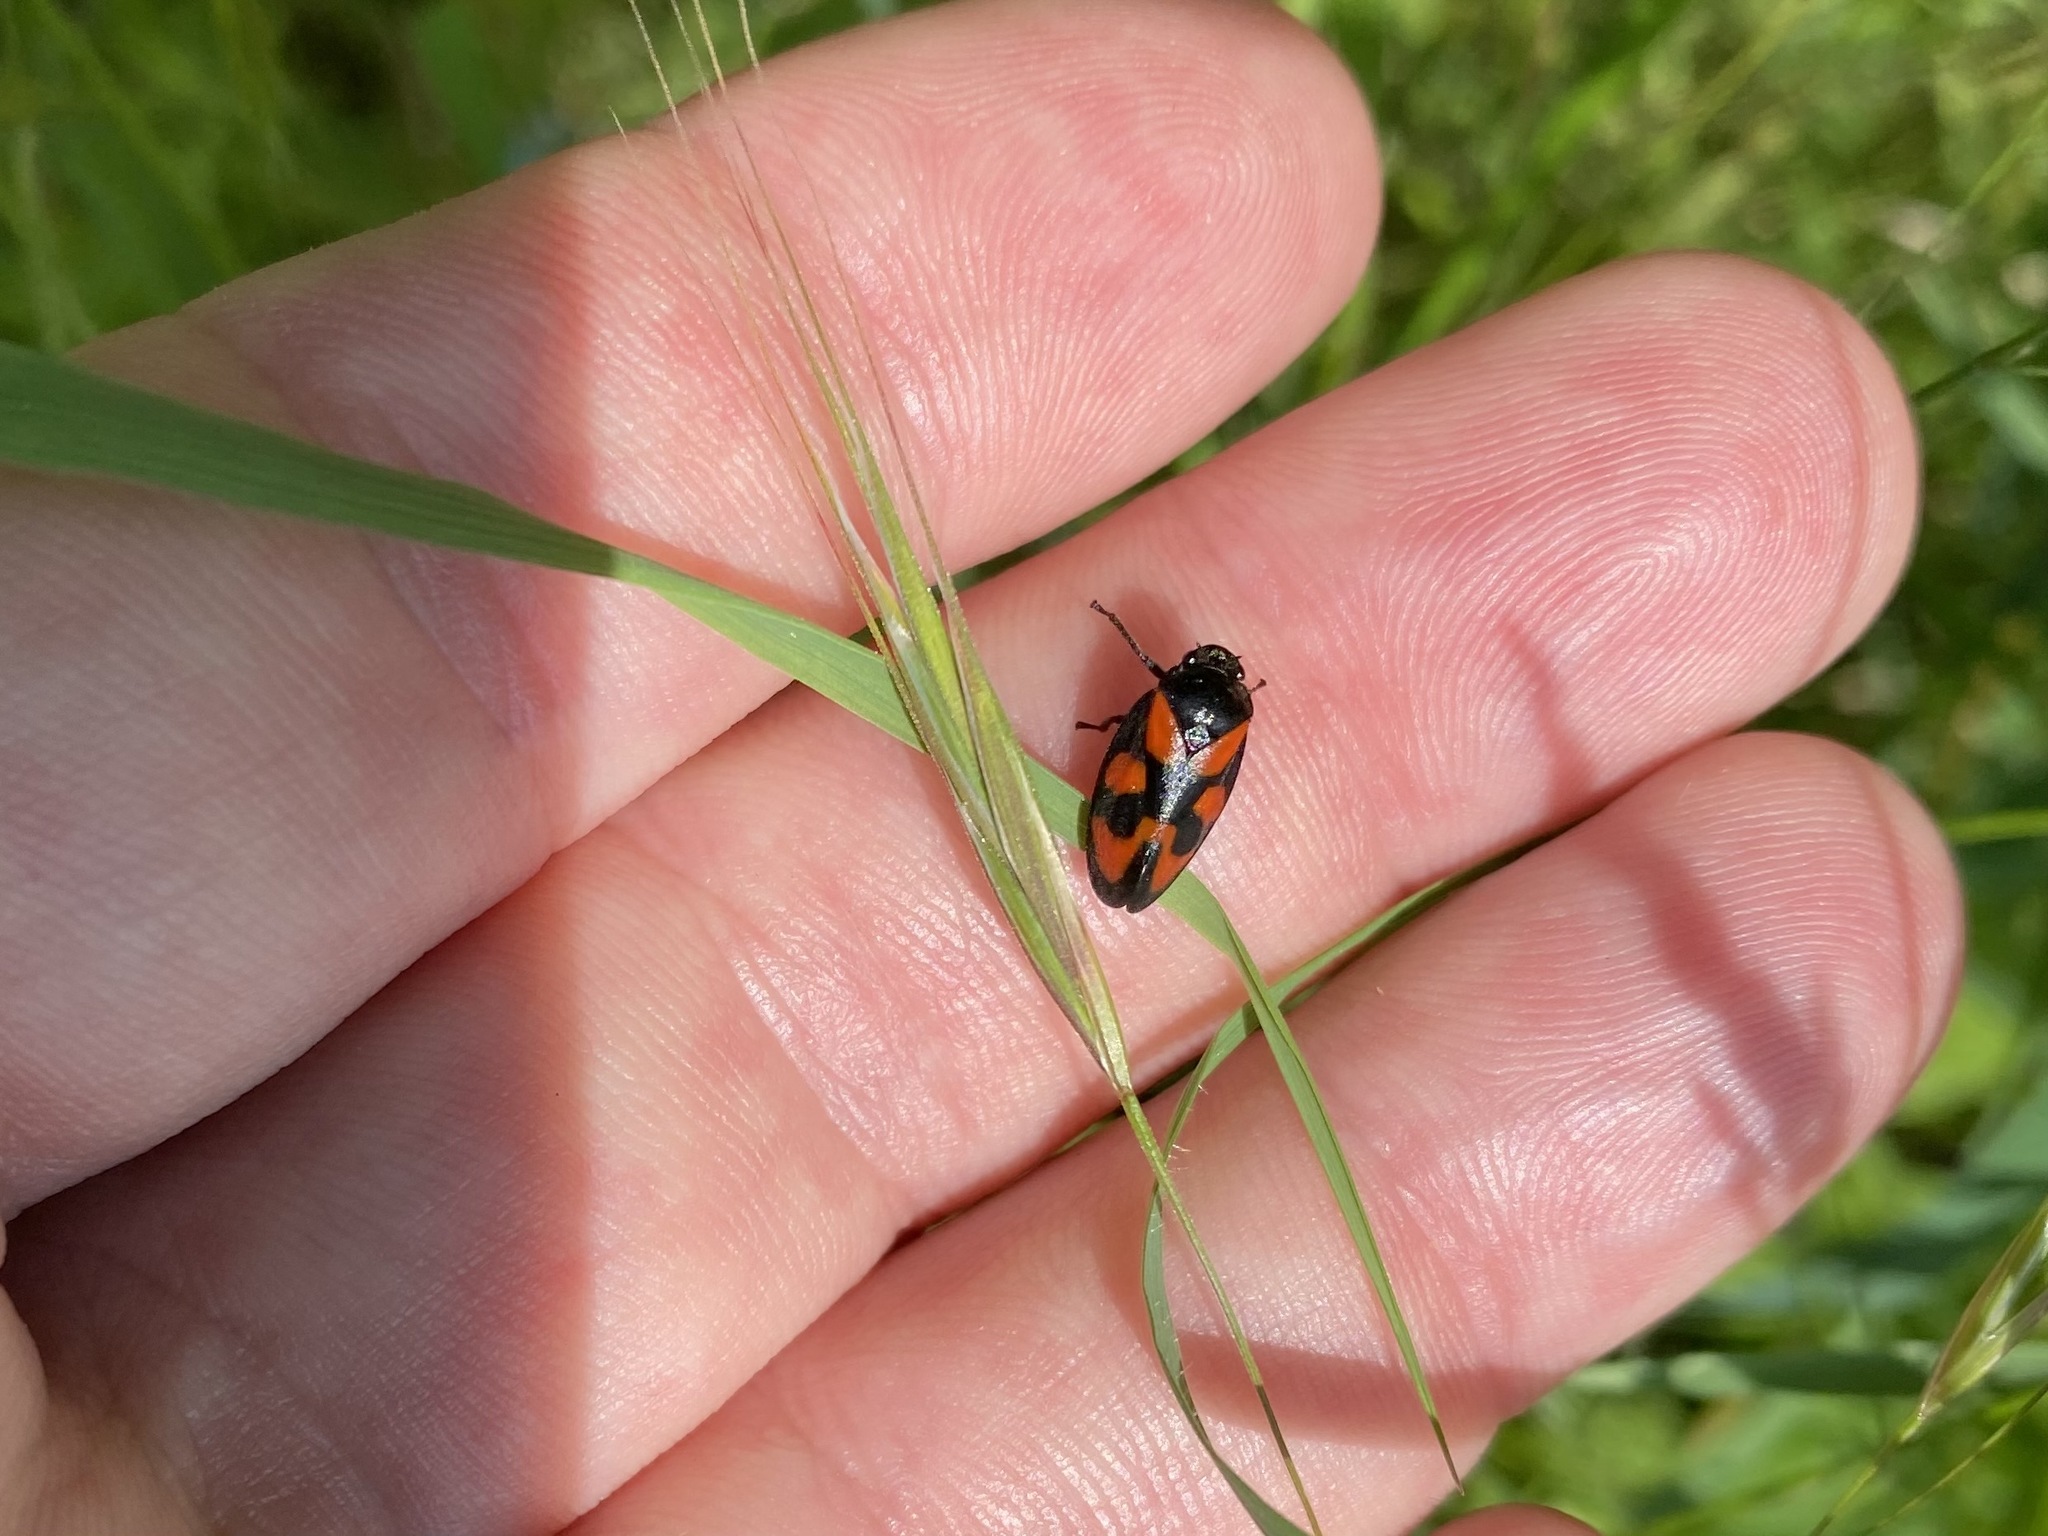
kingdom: Animalia
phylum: Arthropoda
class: Insecta
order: Hemiptera
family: Cercopidae
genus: Cercopis
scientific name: Cercopis vulnerata
